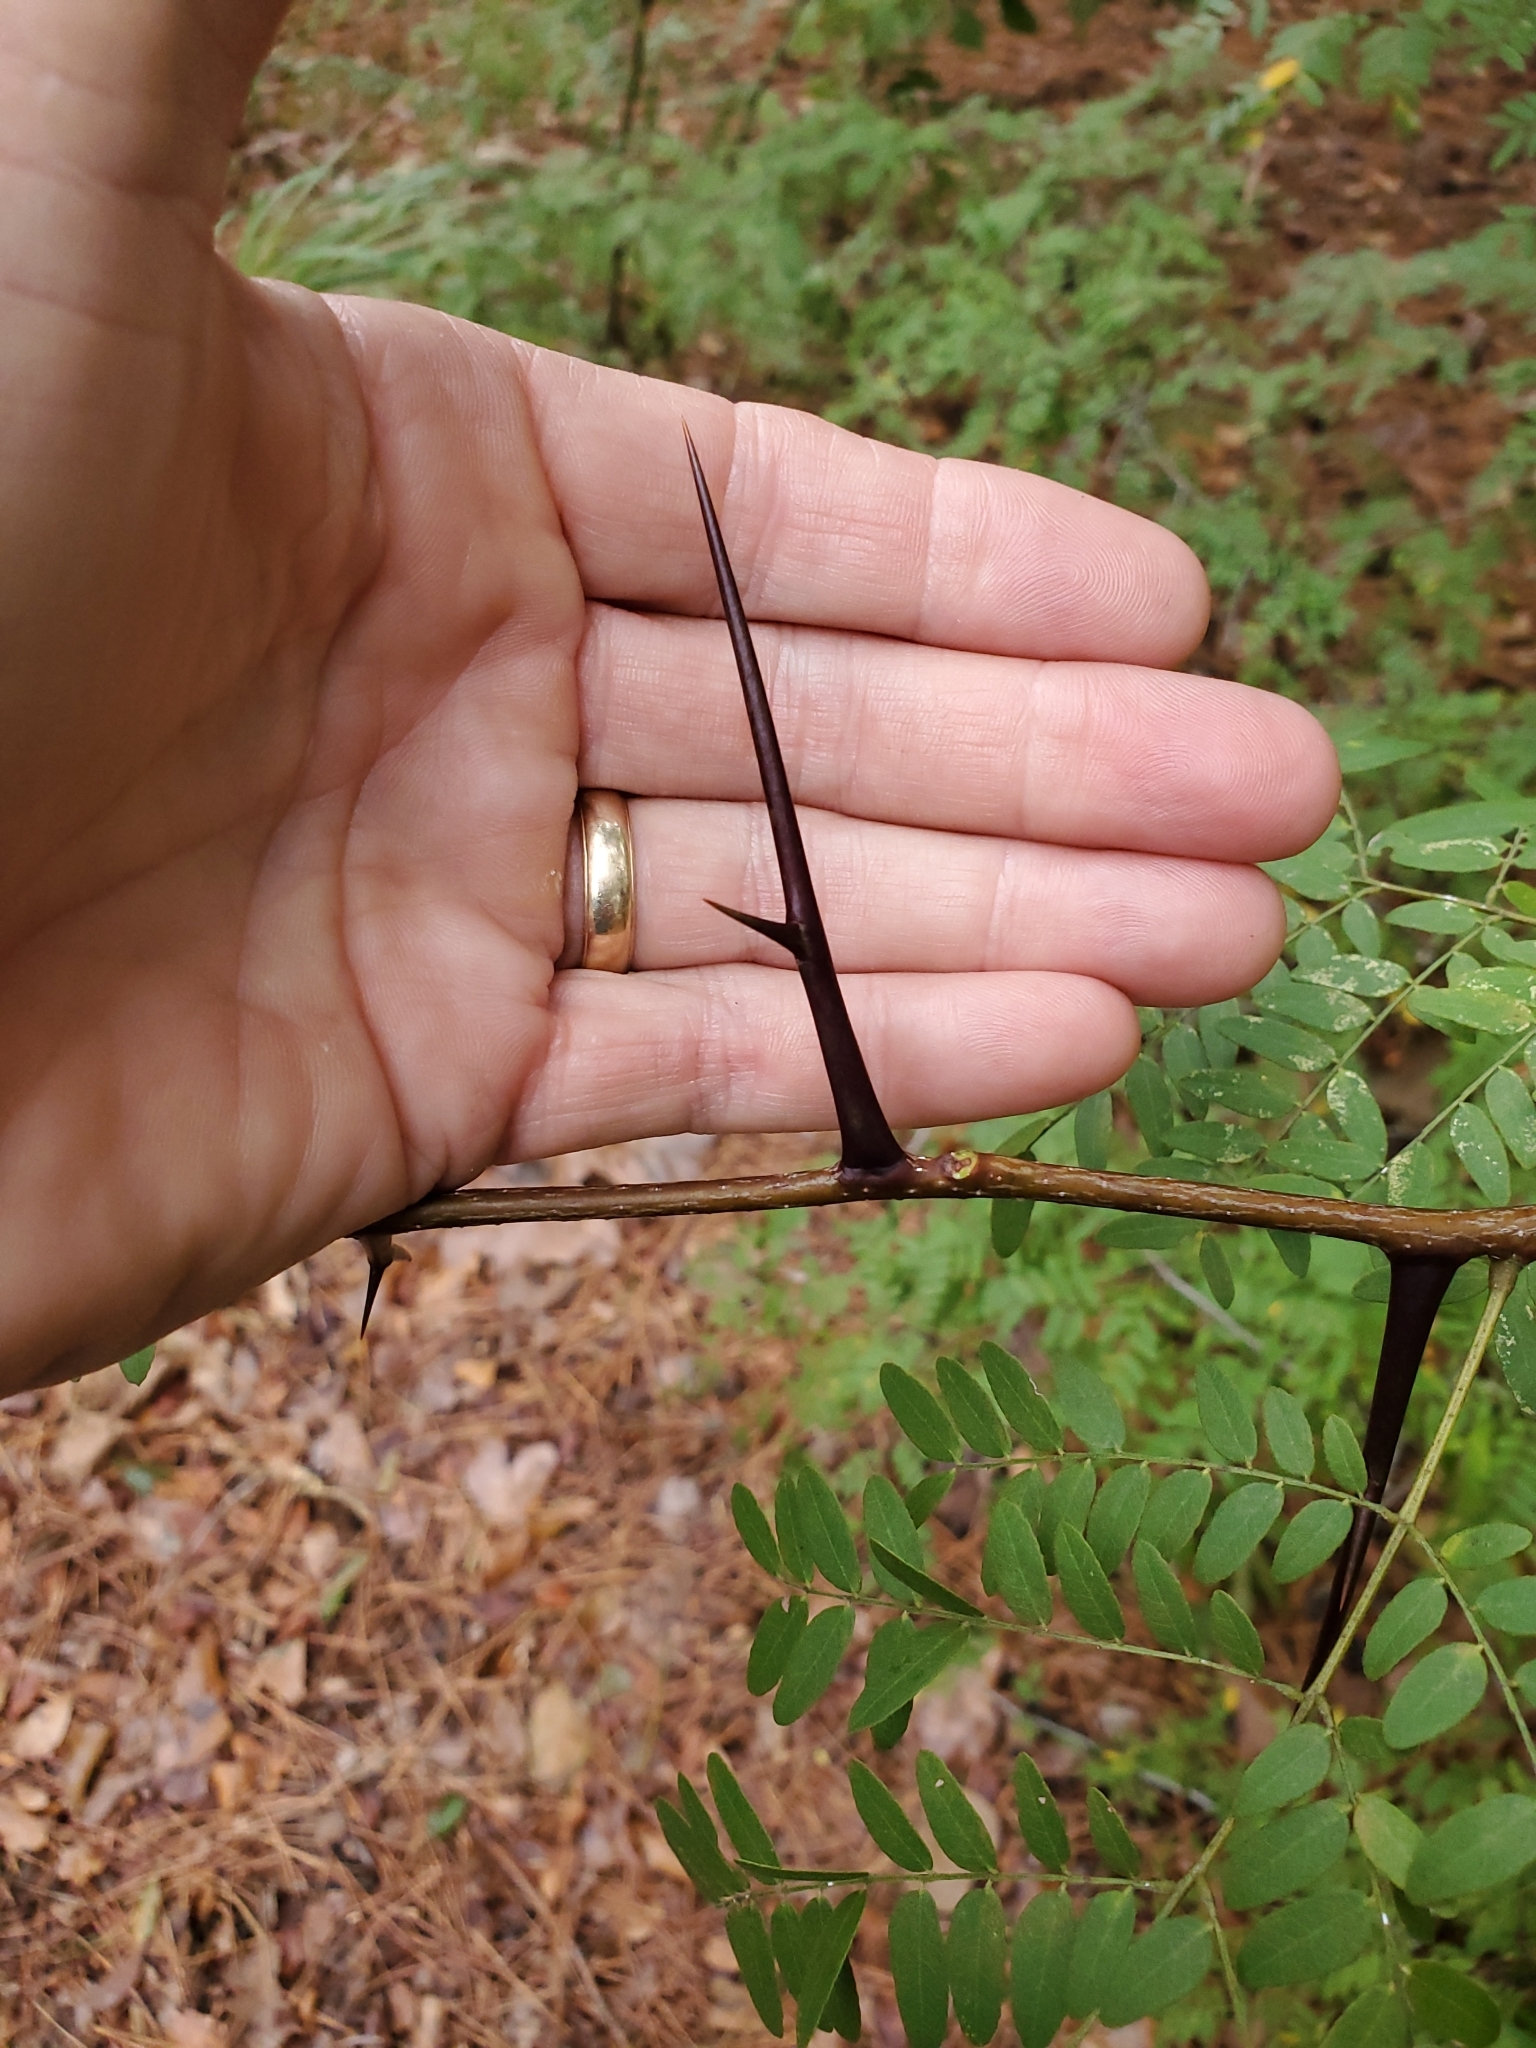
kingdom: Plantae
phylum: Tracheophyta
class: Magnoliopsida
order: Fabales
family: Fabaceae
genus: Gleditsia
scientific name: Gleditsia triacanthos
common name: Common honeylocust
